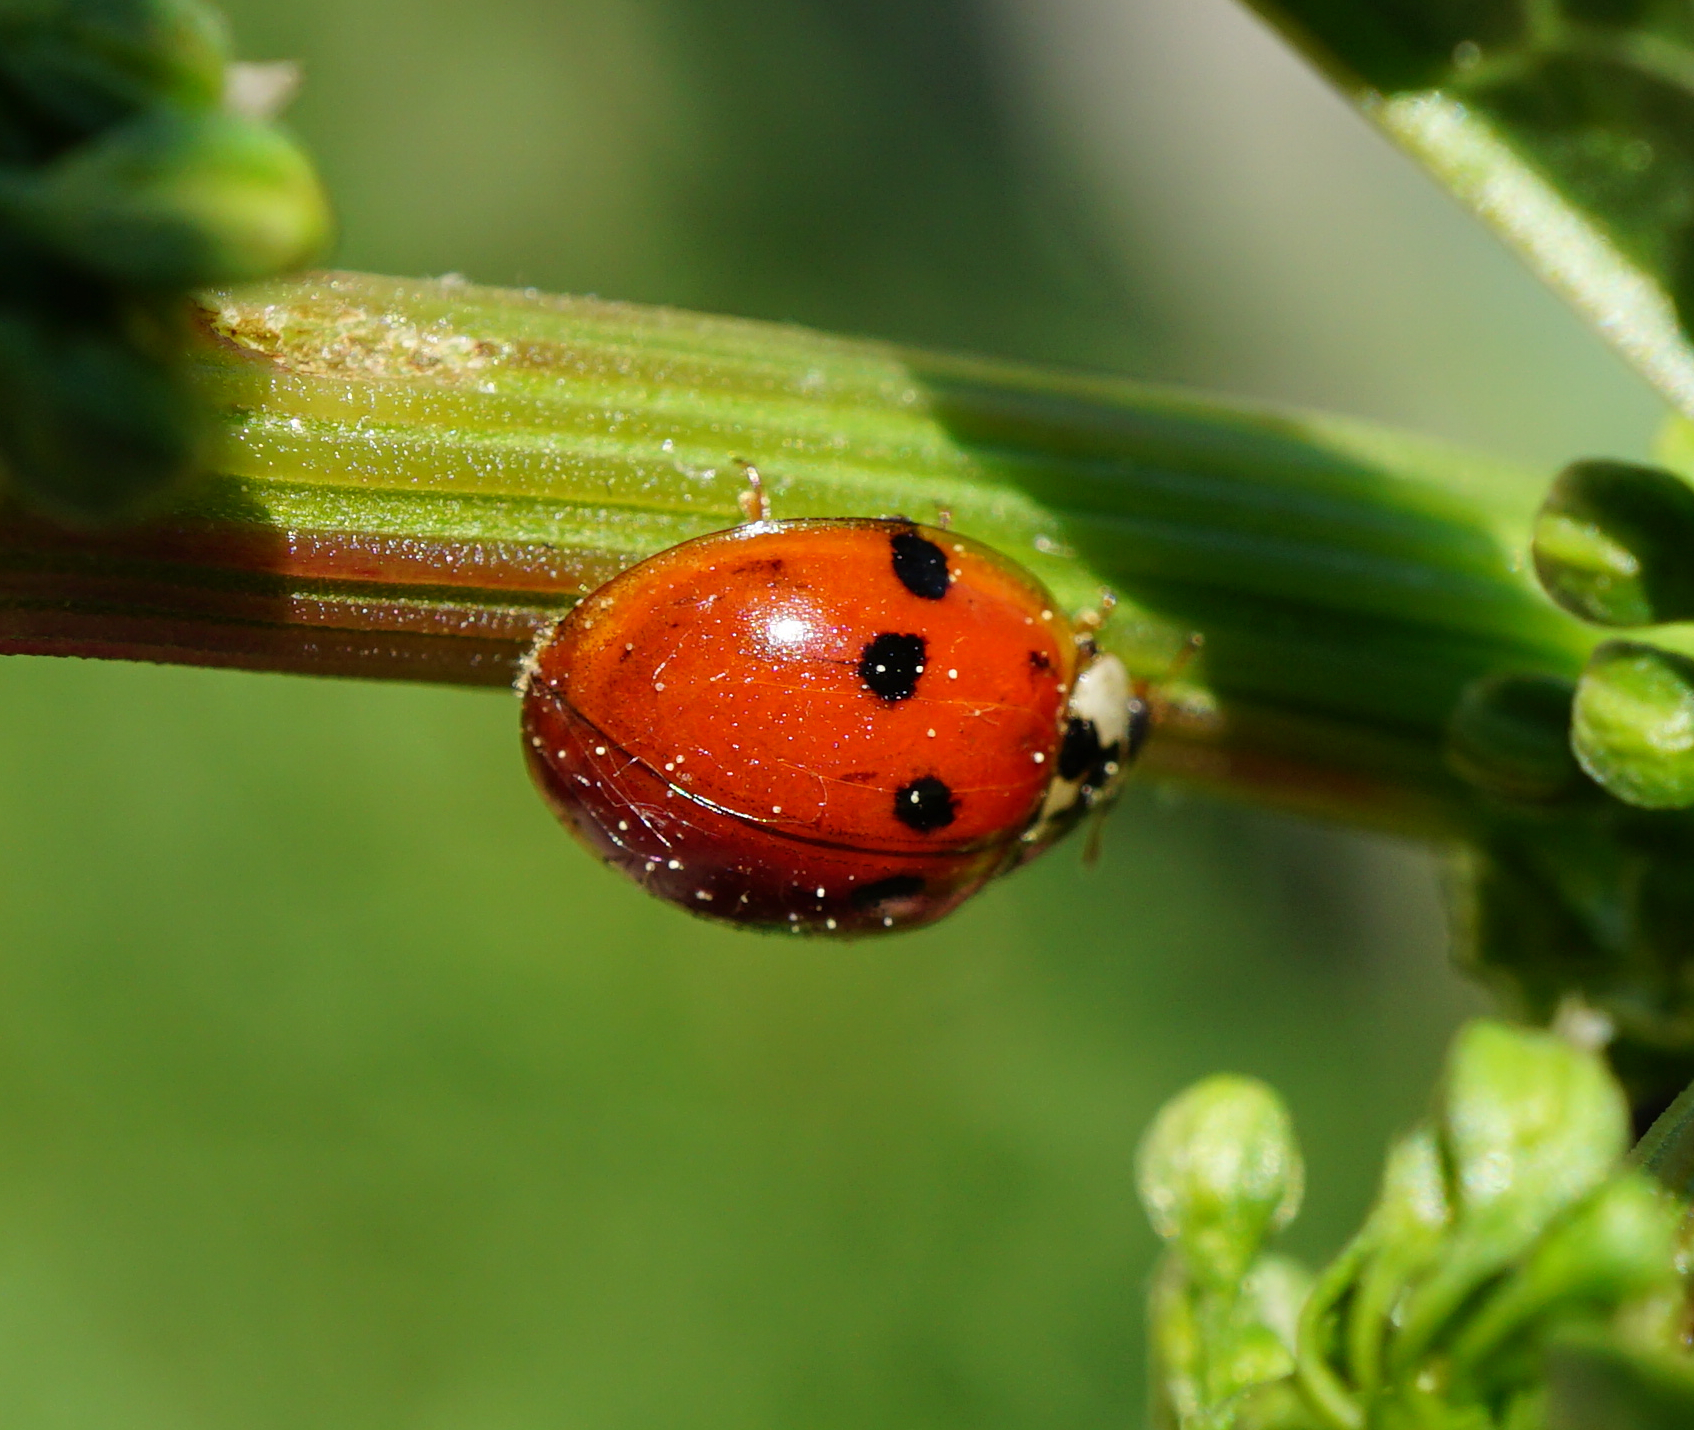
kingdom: Animalia
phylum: Arthropoda
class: Insecta
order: Coleoptera
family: Coccinellidae
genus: Harmonia
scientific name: Harmonia axyridis
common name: Harlequin ladybird
